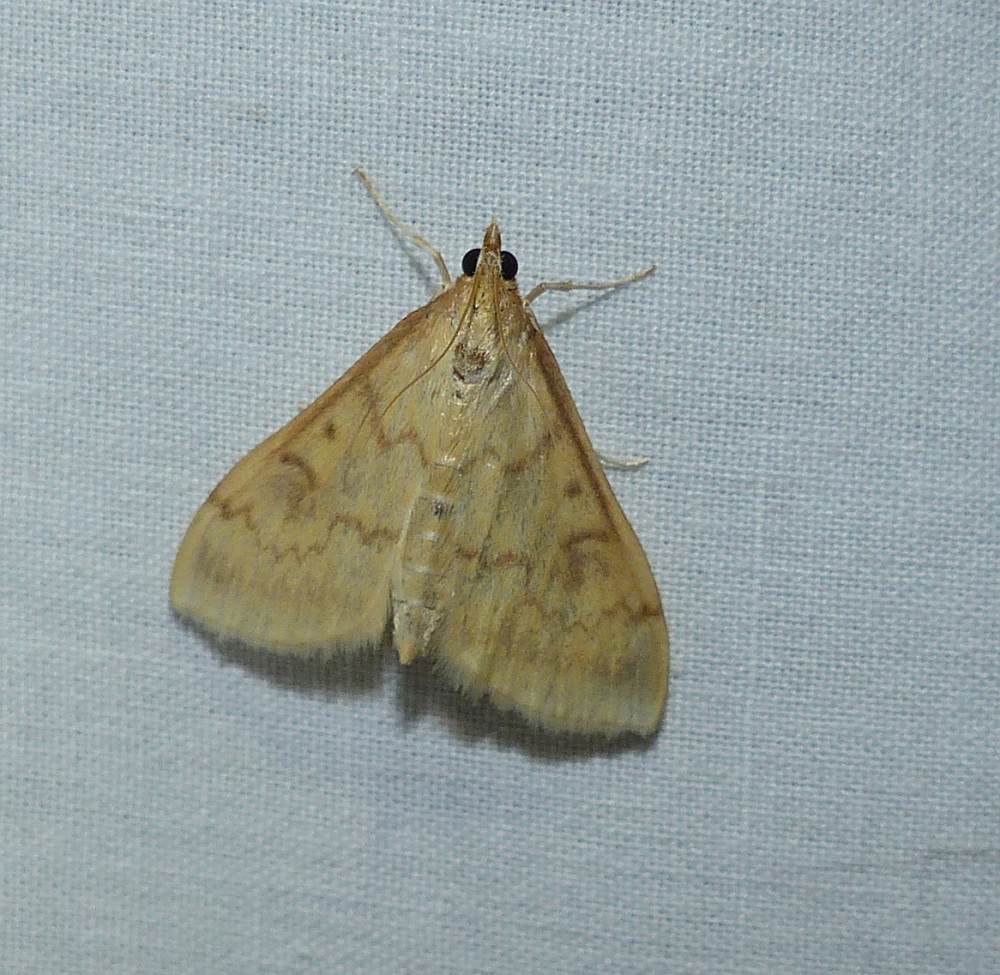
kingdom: Animalia
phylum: Arthropoda
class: Insecta
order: Lepidoptera
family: Crambidae
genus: Ostrinia
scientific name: Ostrinia nubilalis
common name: European corn borer
